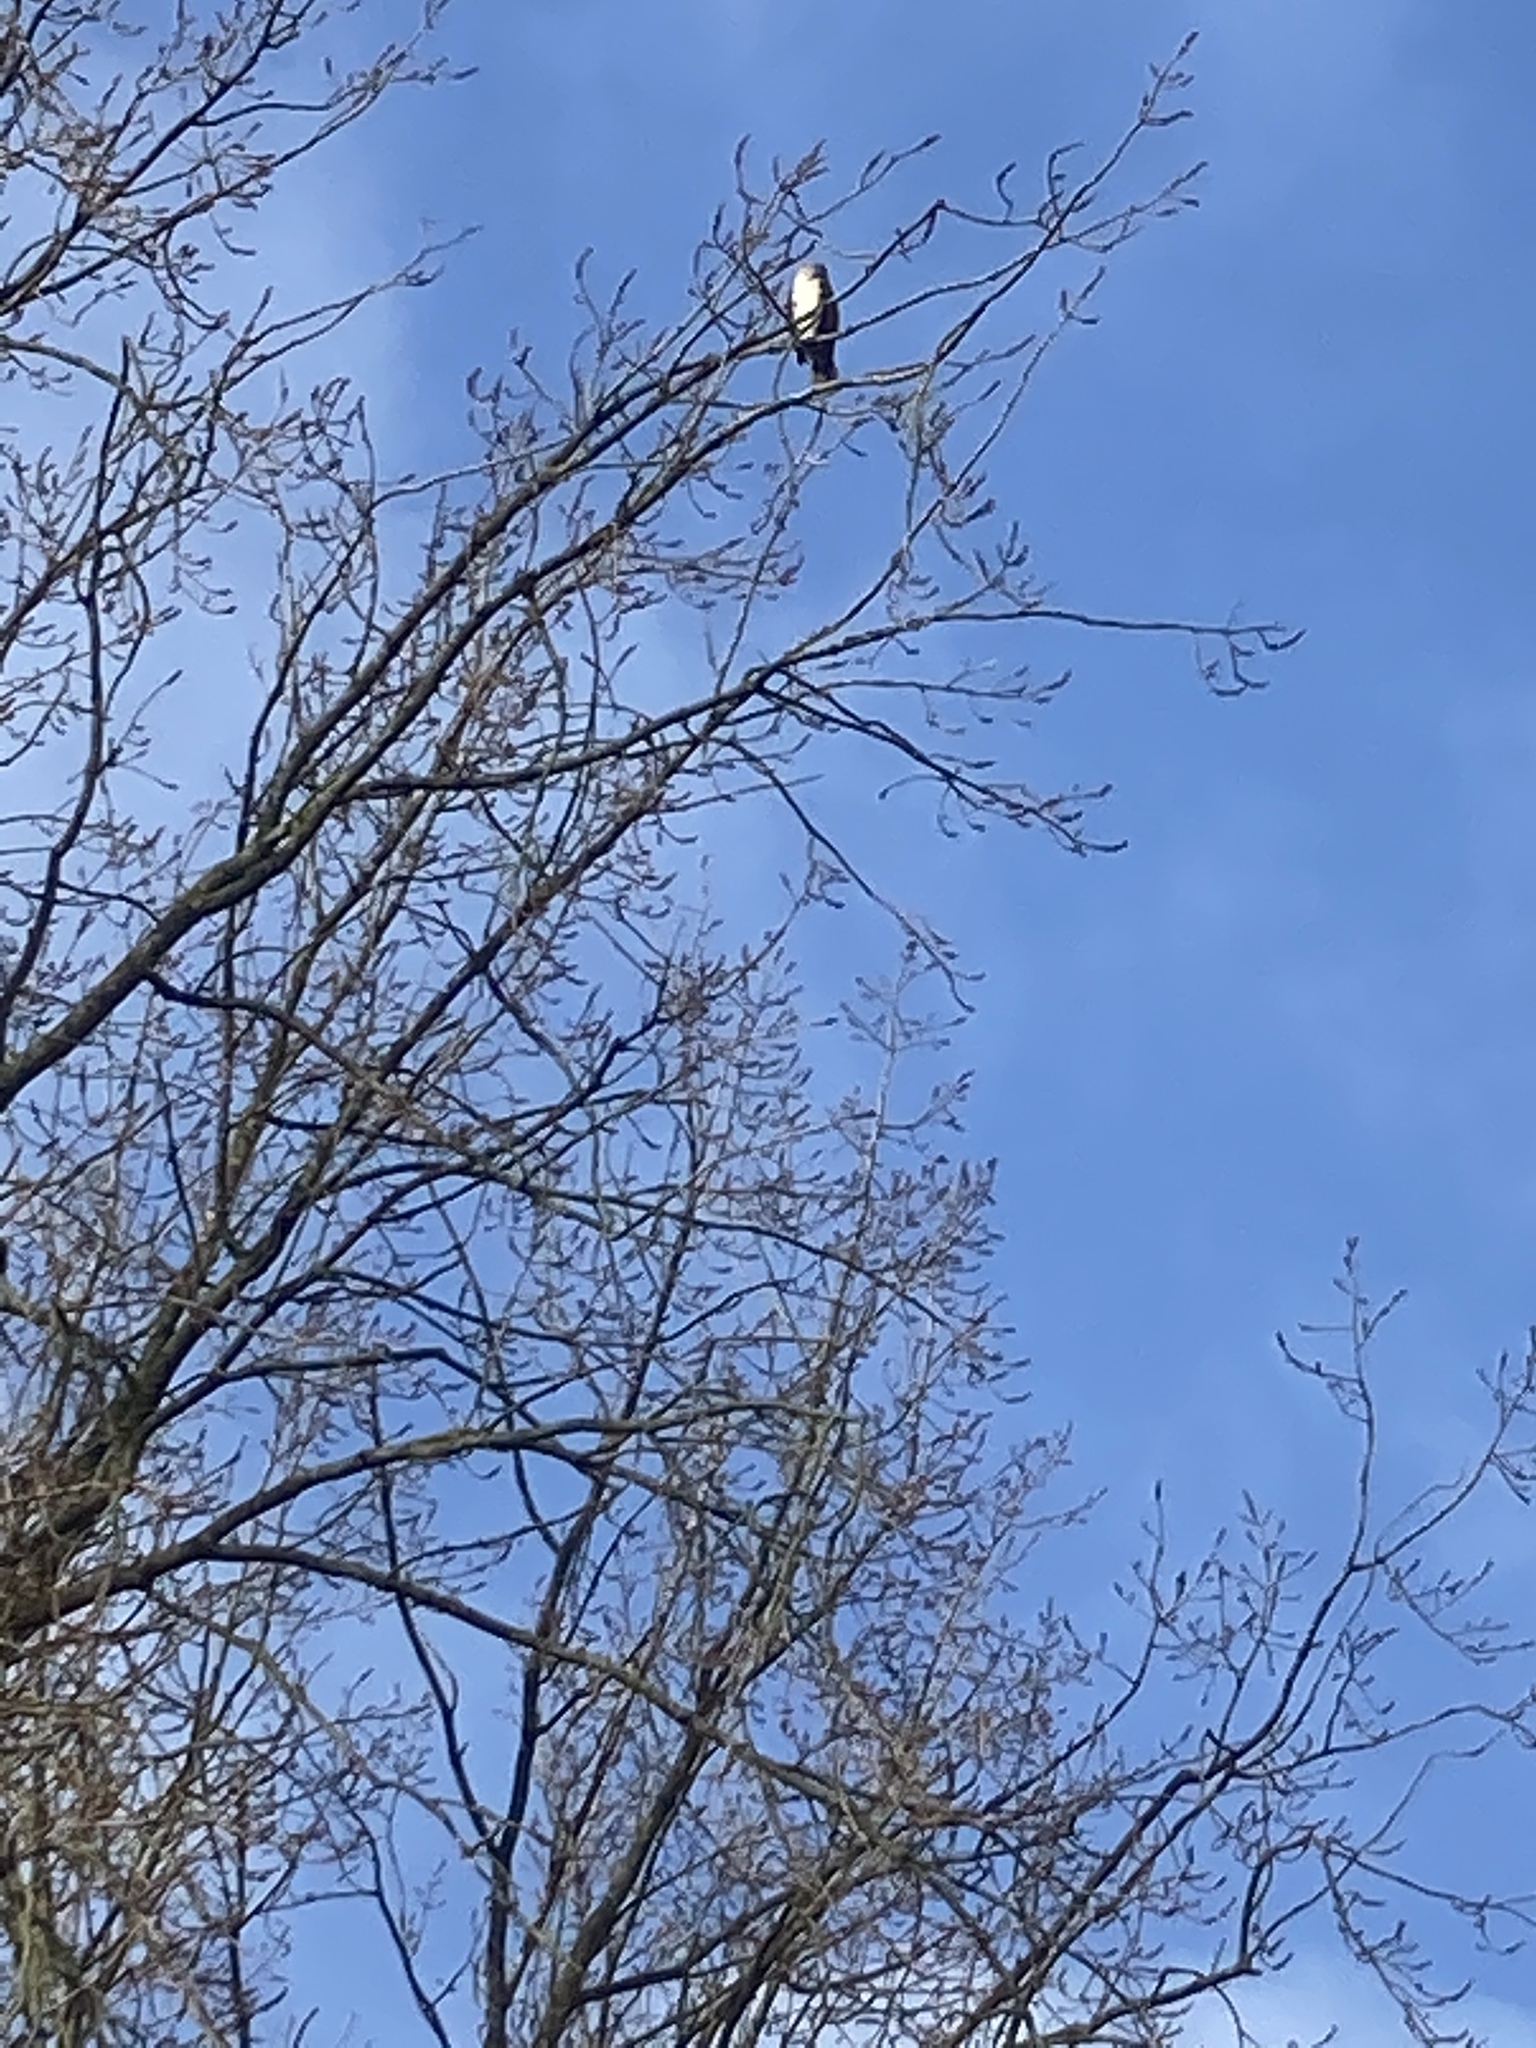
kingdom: Animalia
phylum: Chordata
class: Aves
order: Suliformes
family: Phalacrocoracidae
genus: Phalacrocorax
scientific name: Phalacrocorax carbo
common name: Great cormorant
